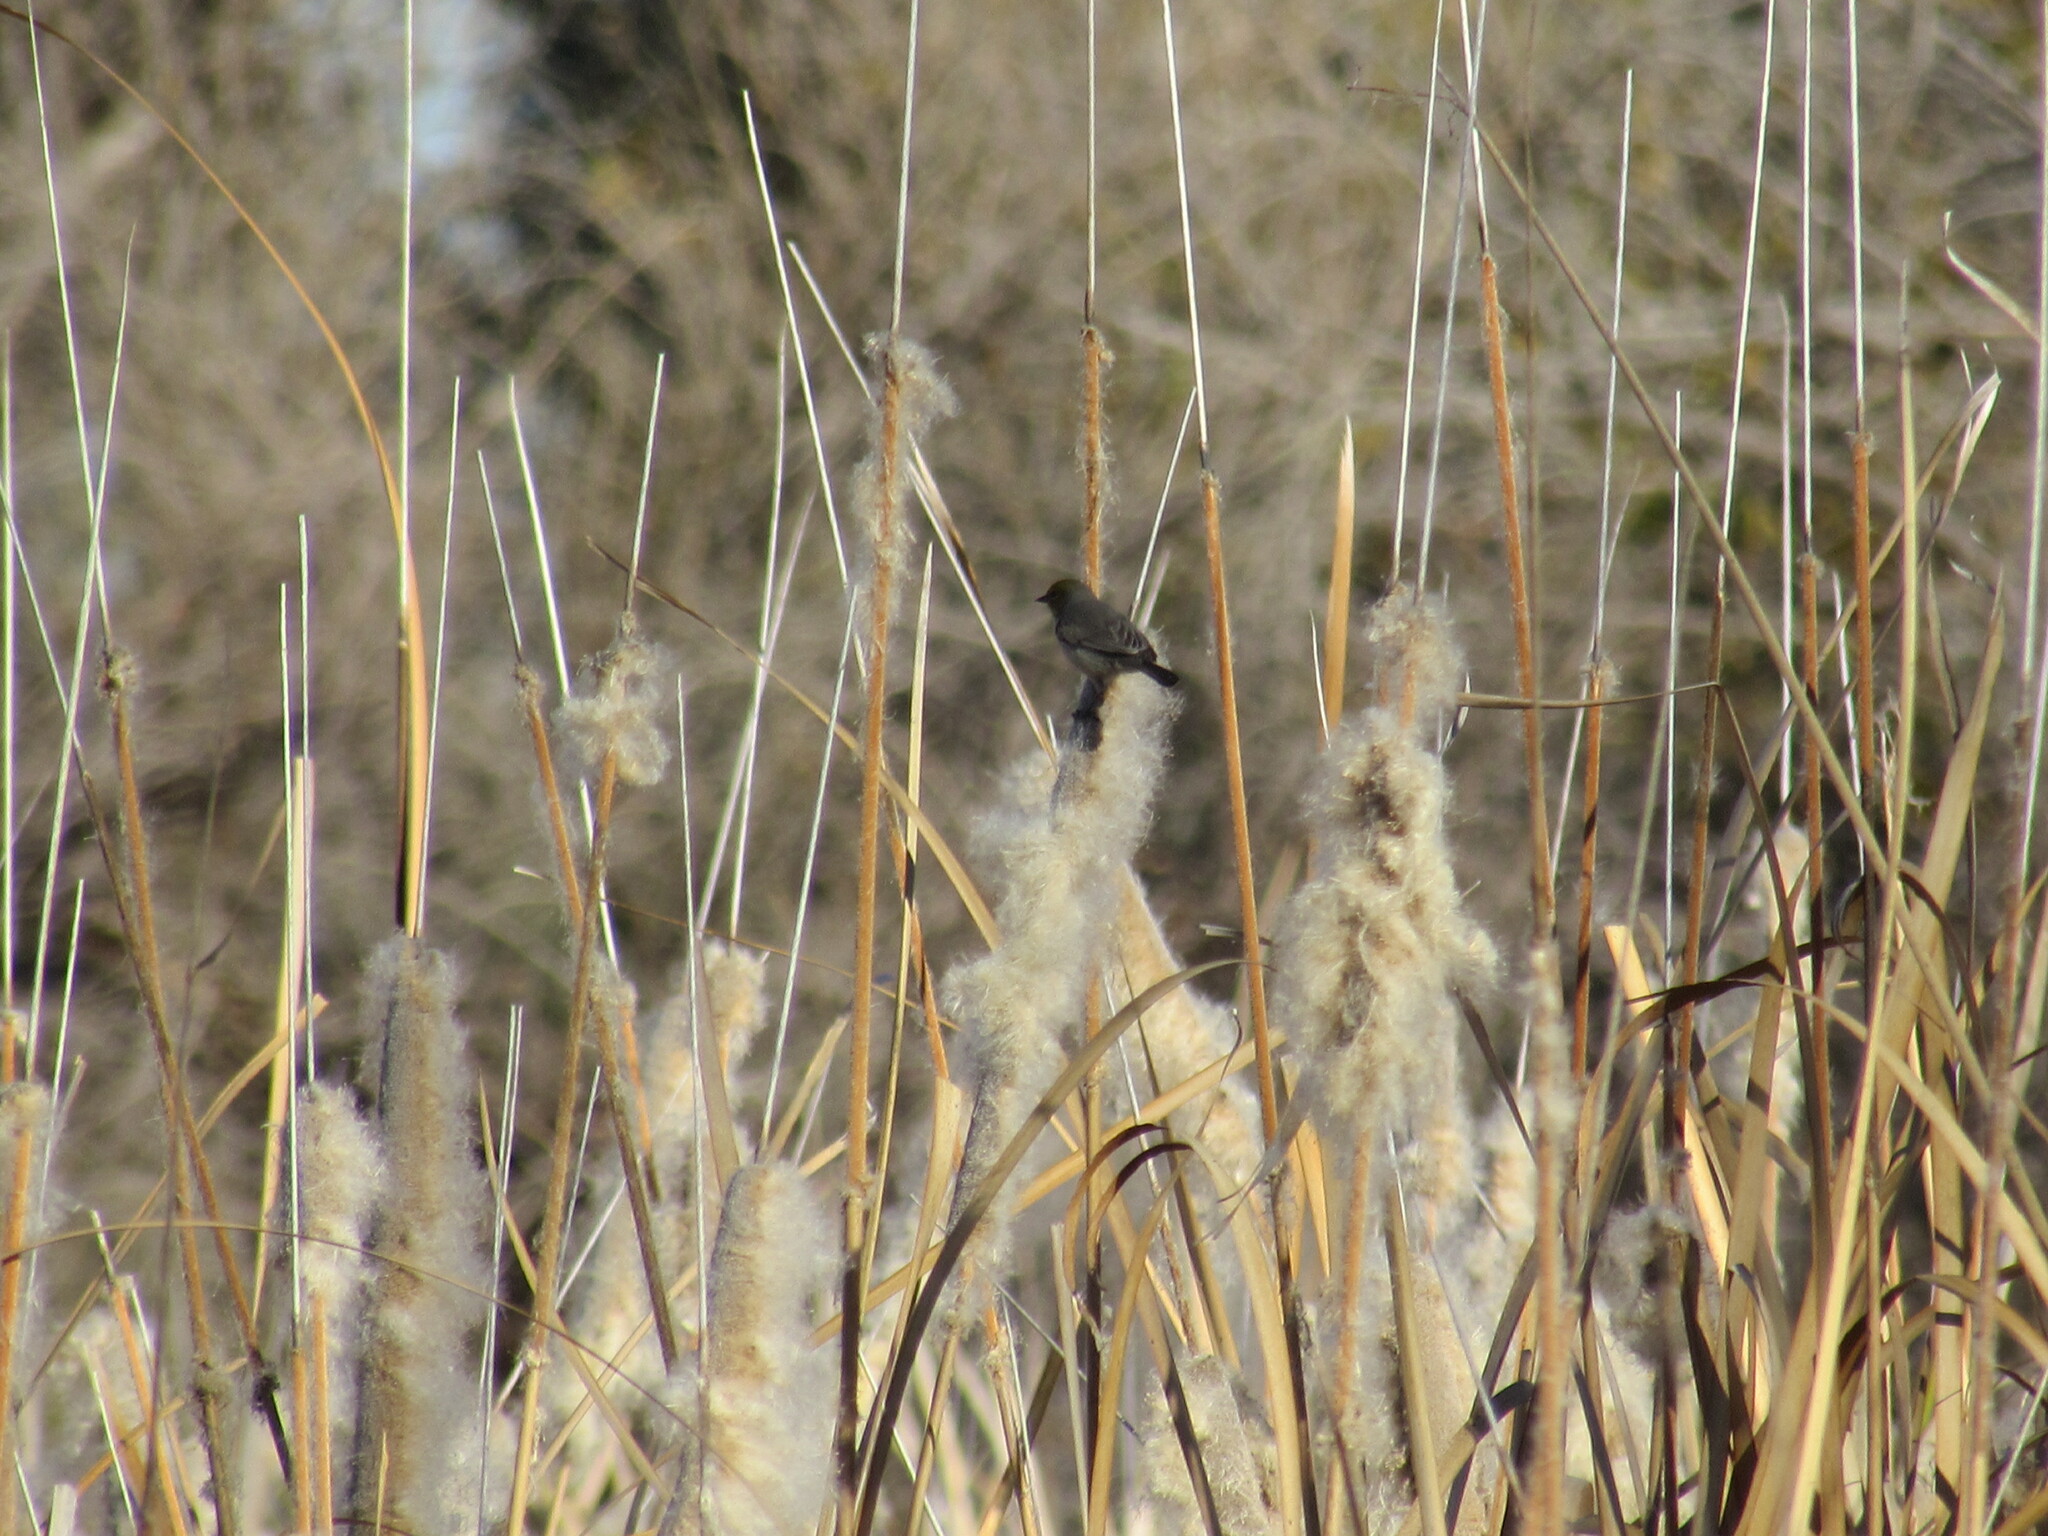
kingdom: Animalia
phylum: Chordata
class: Aves
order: Passeriformes
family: Remizidae
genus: Auriparus
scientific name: Auriparus flaviceps
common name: Verdin
